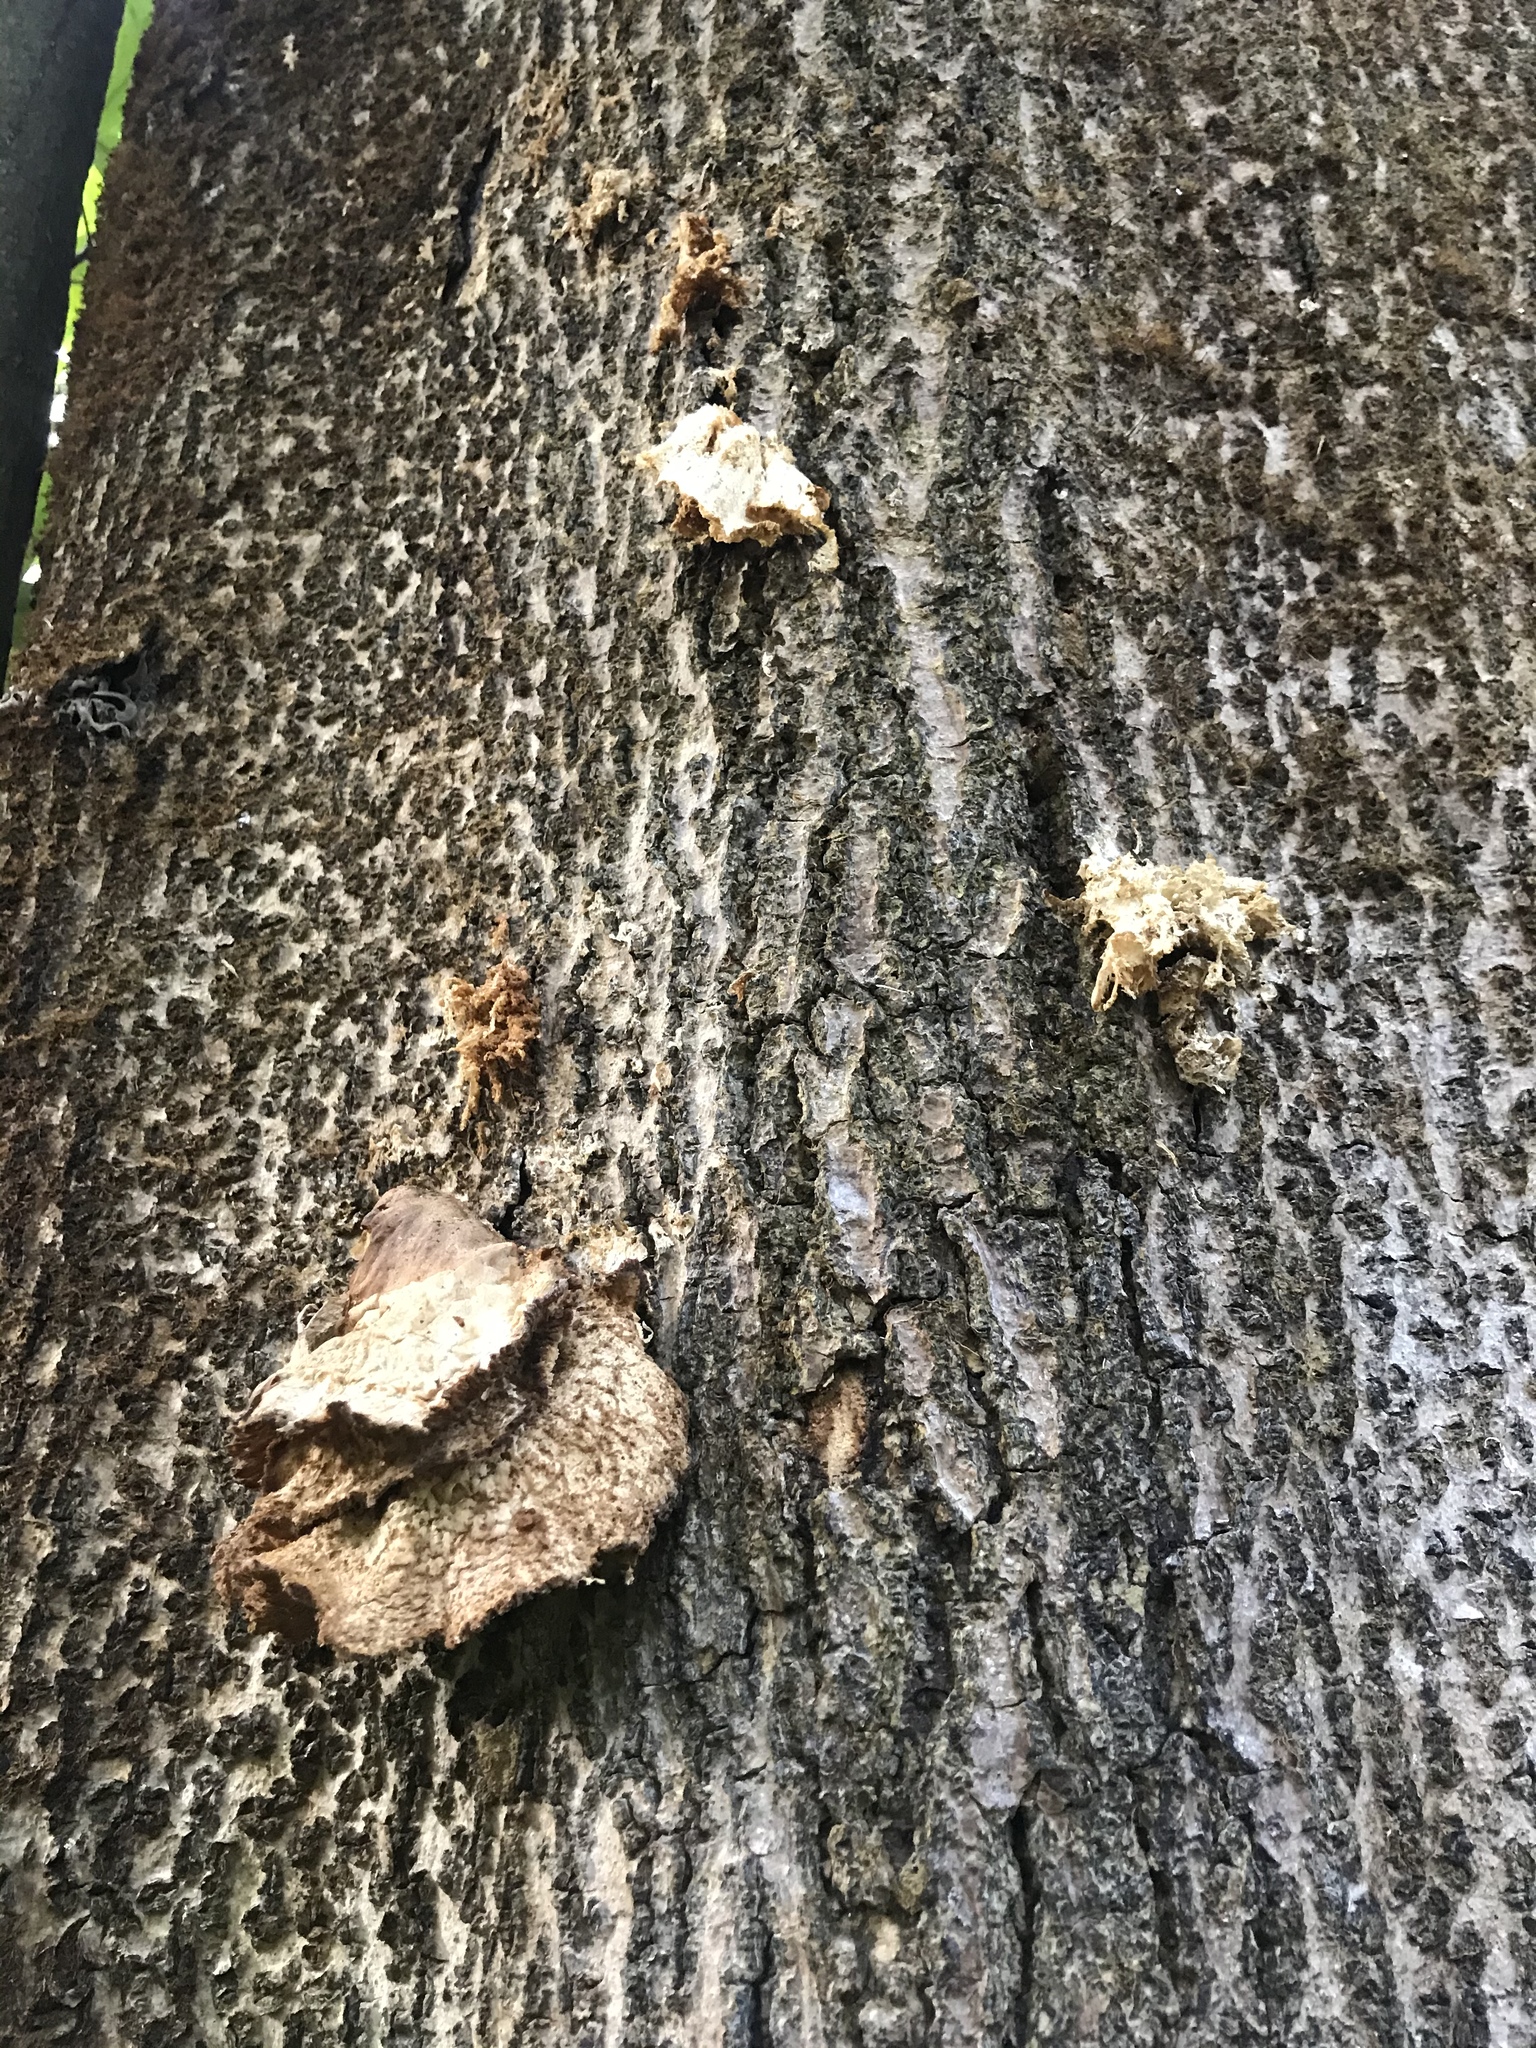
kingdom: Fungi
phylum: Basidiomycota
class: Agaricomycetes
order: Agaricales
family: Schizophyllaceae
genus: Schizophyllum
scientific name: Schizophyllum commune
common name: Common porecrust
